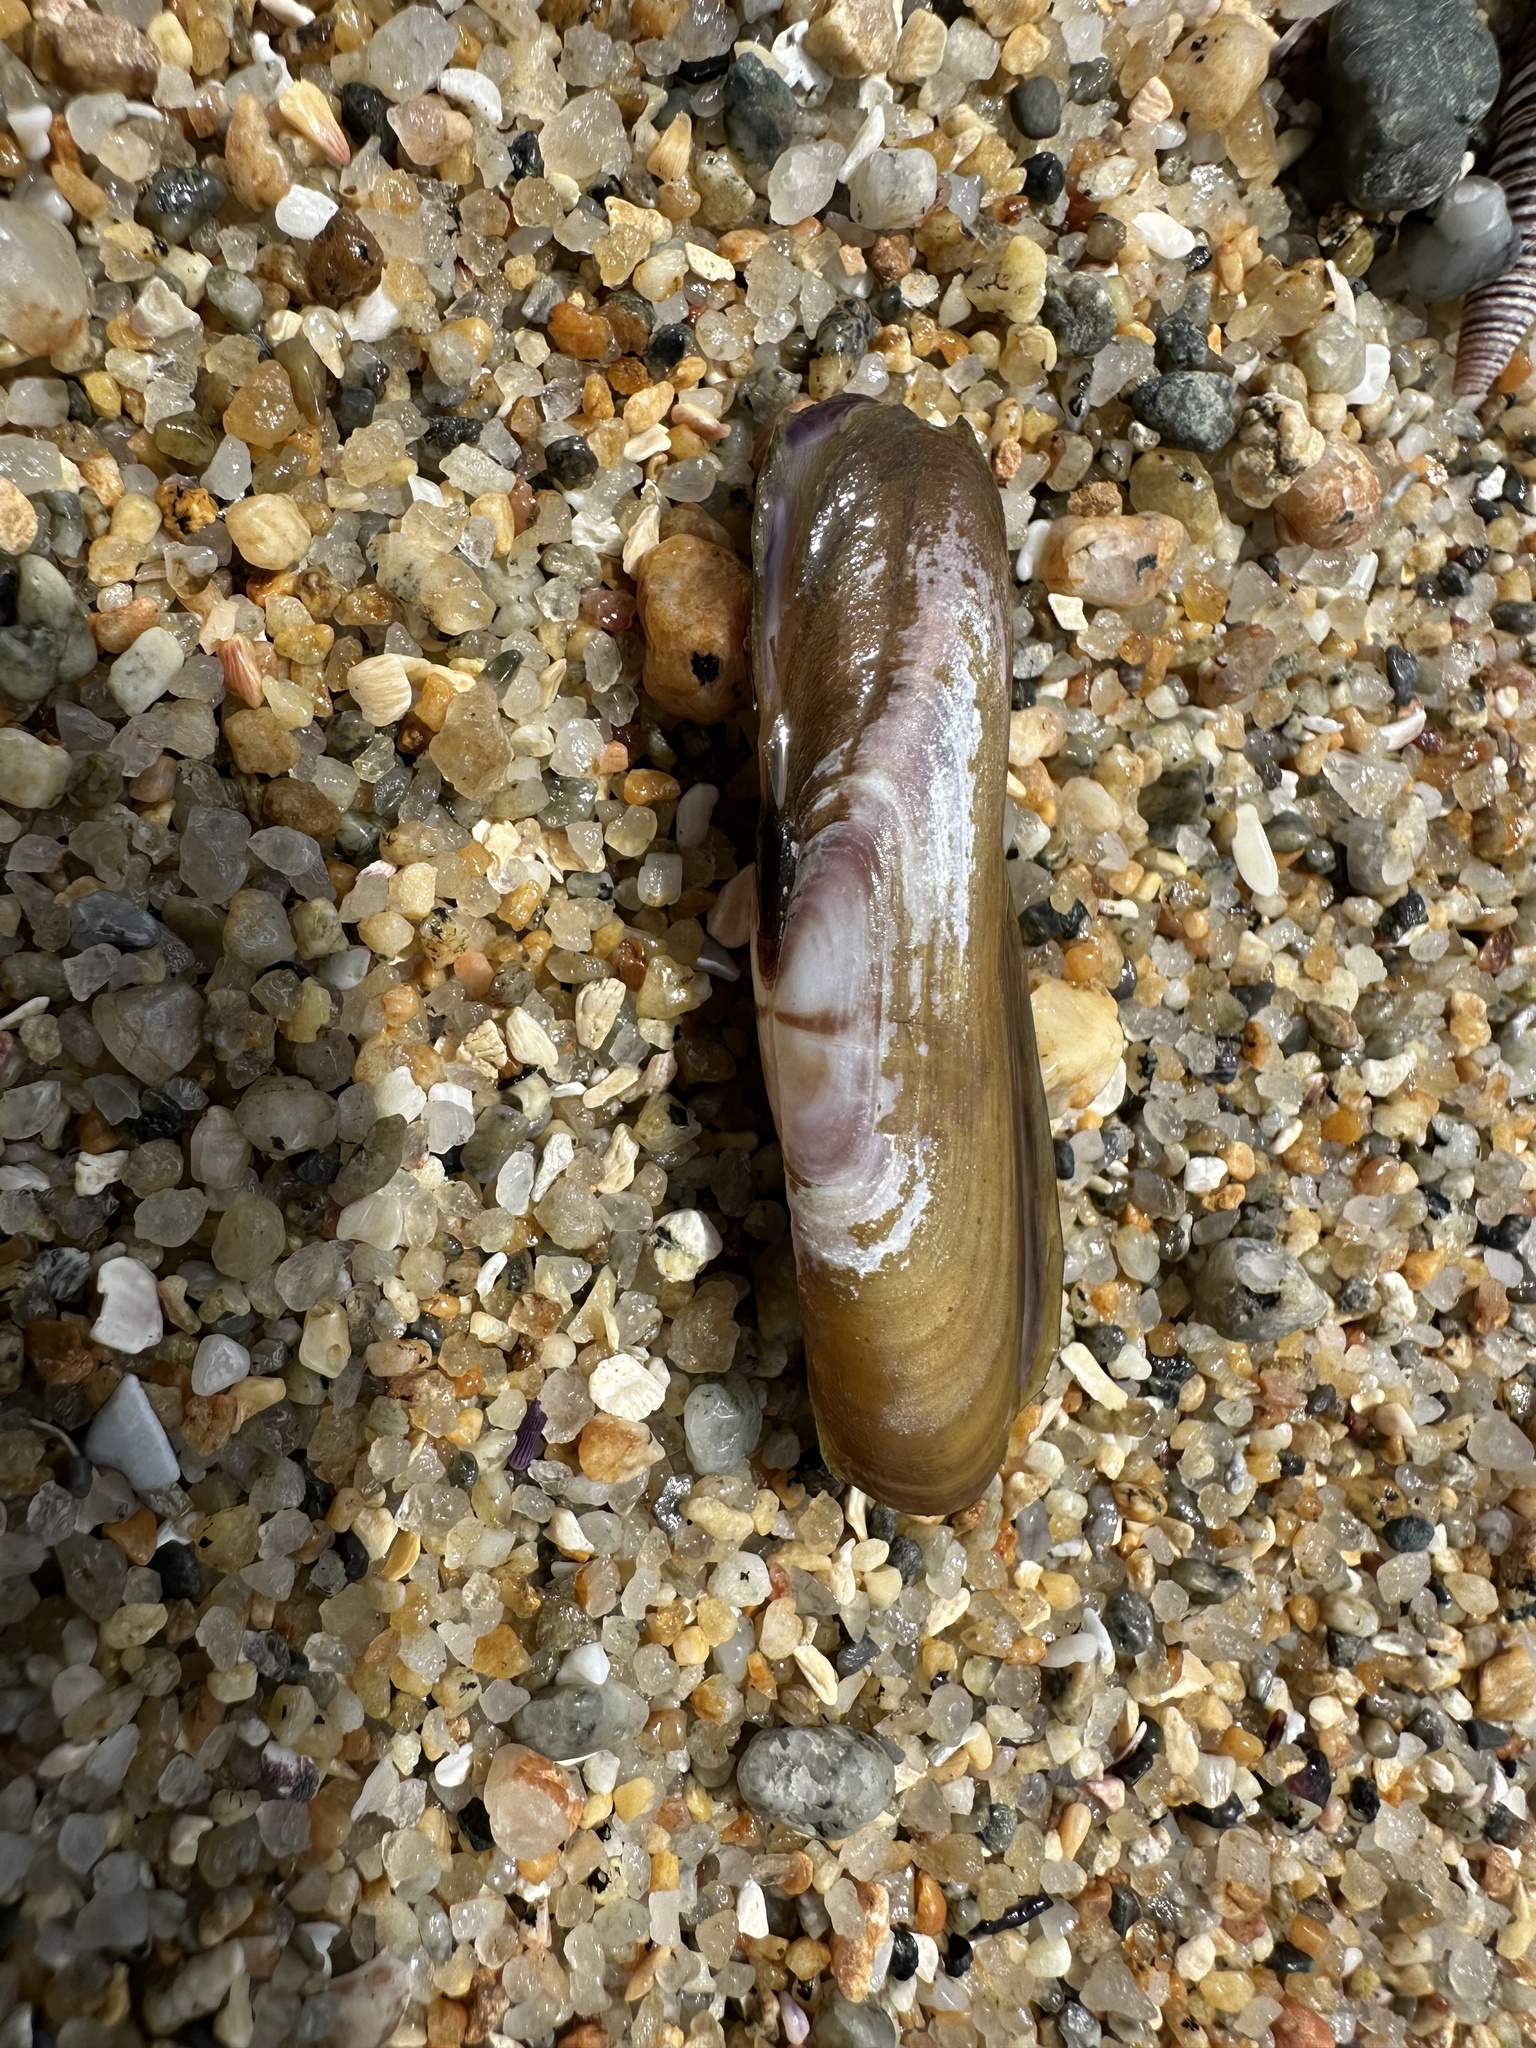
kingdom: Animalia
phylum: Mollusca
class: Bivalvia
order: Cardiida
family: Solecurtidae
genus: Tagelus
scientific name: Tagelus dombeii
